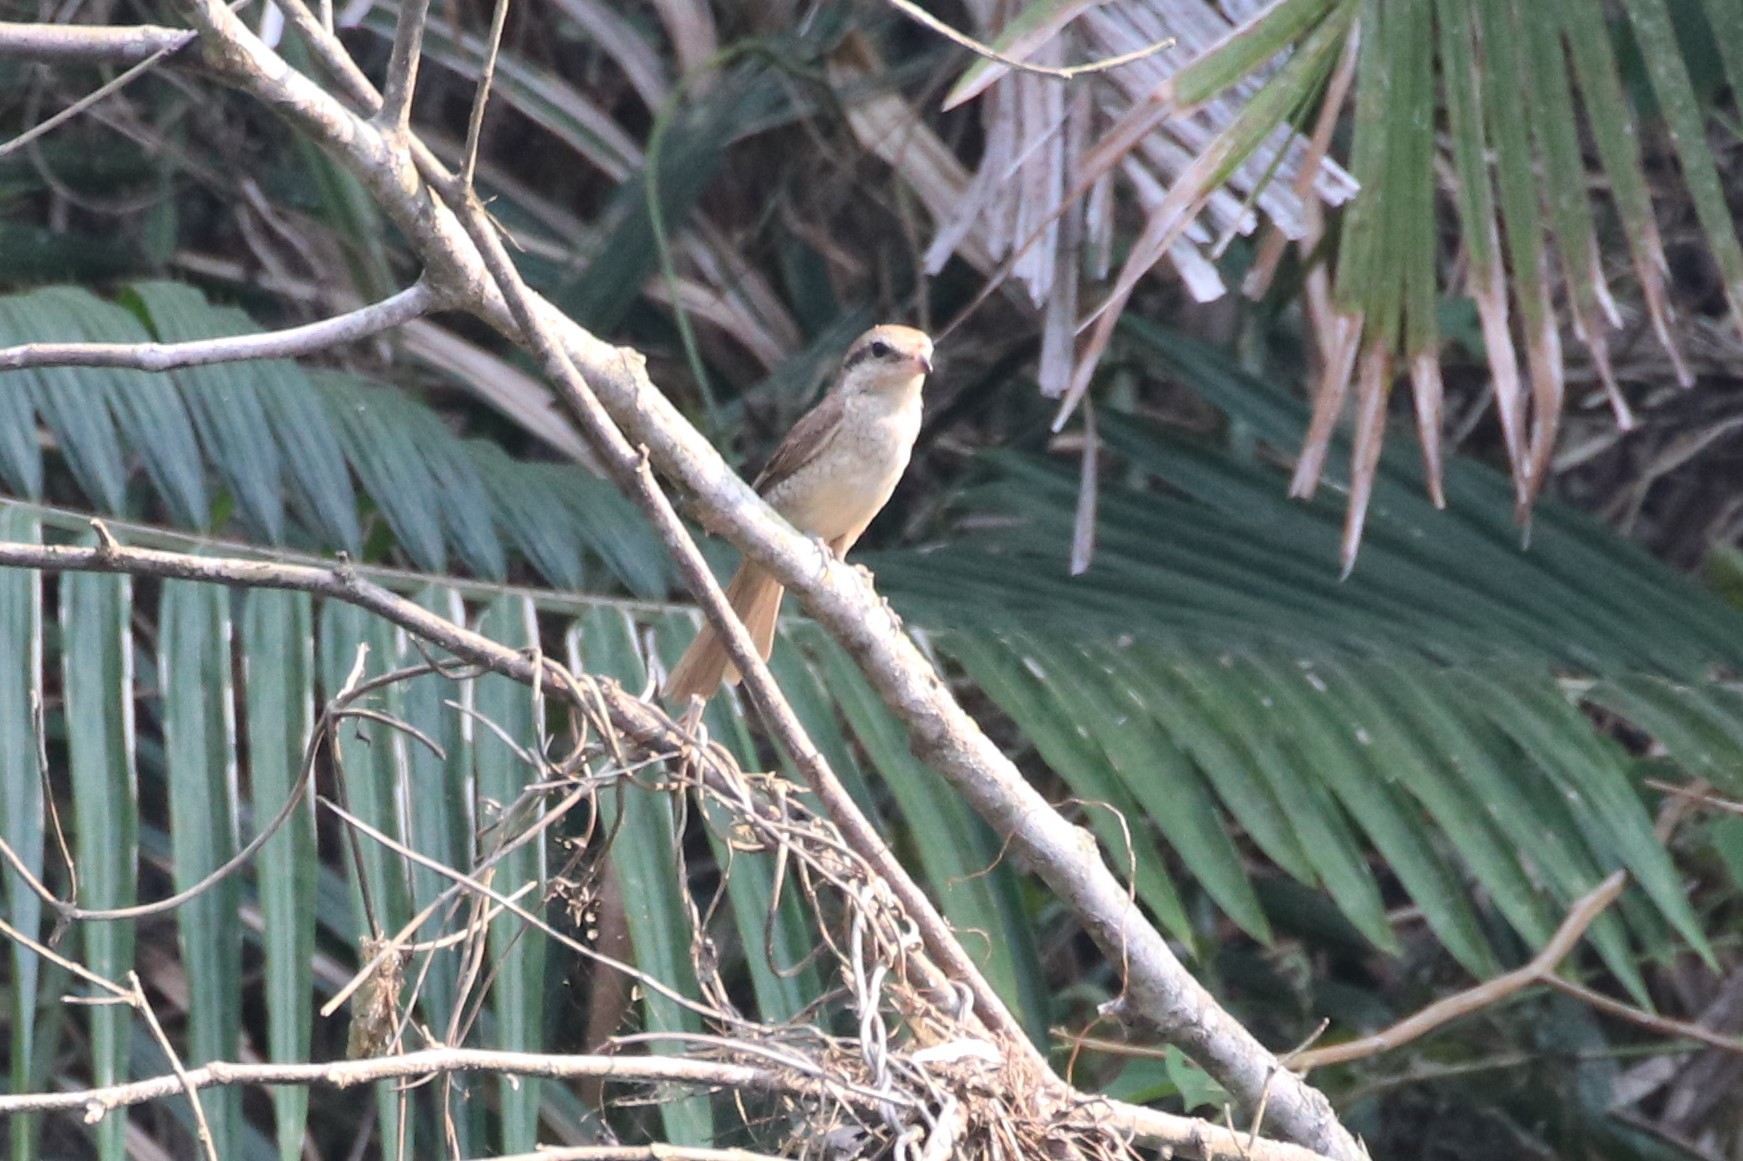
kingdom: Animalia
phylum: Chordata
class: Aves
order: Passeriformes
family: Laniidae
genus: Lanius
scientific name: Lanius cristatus
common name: Brown shrike
